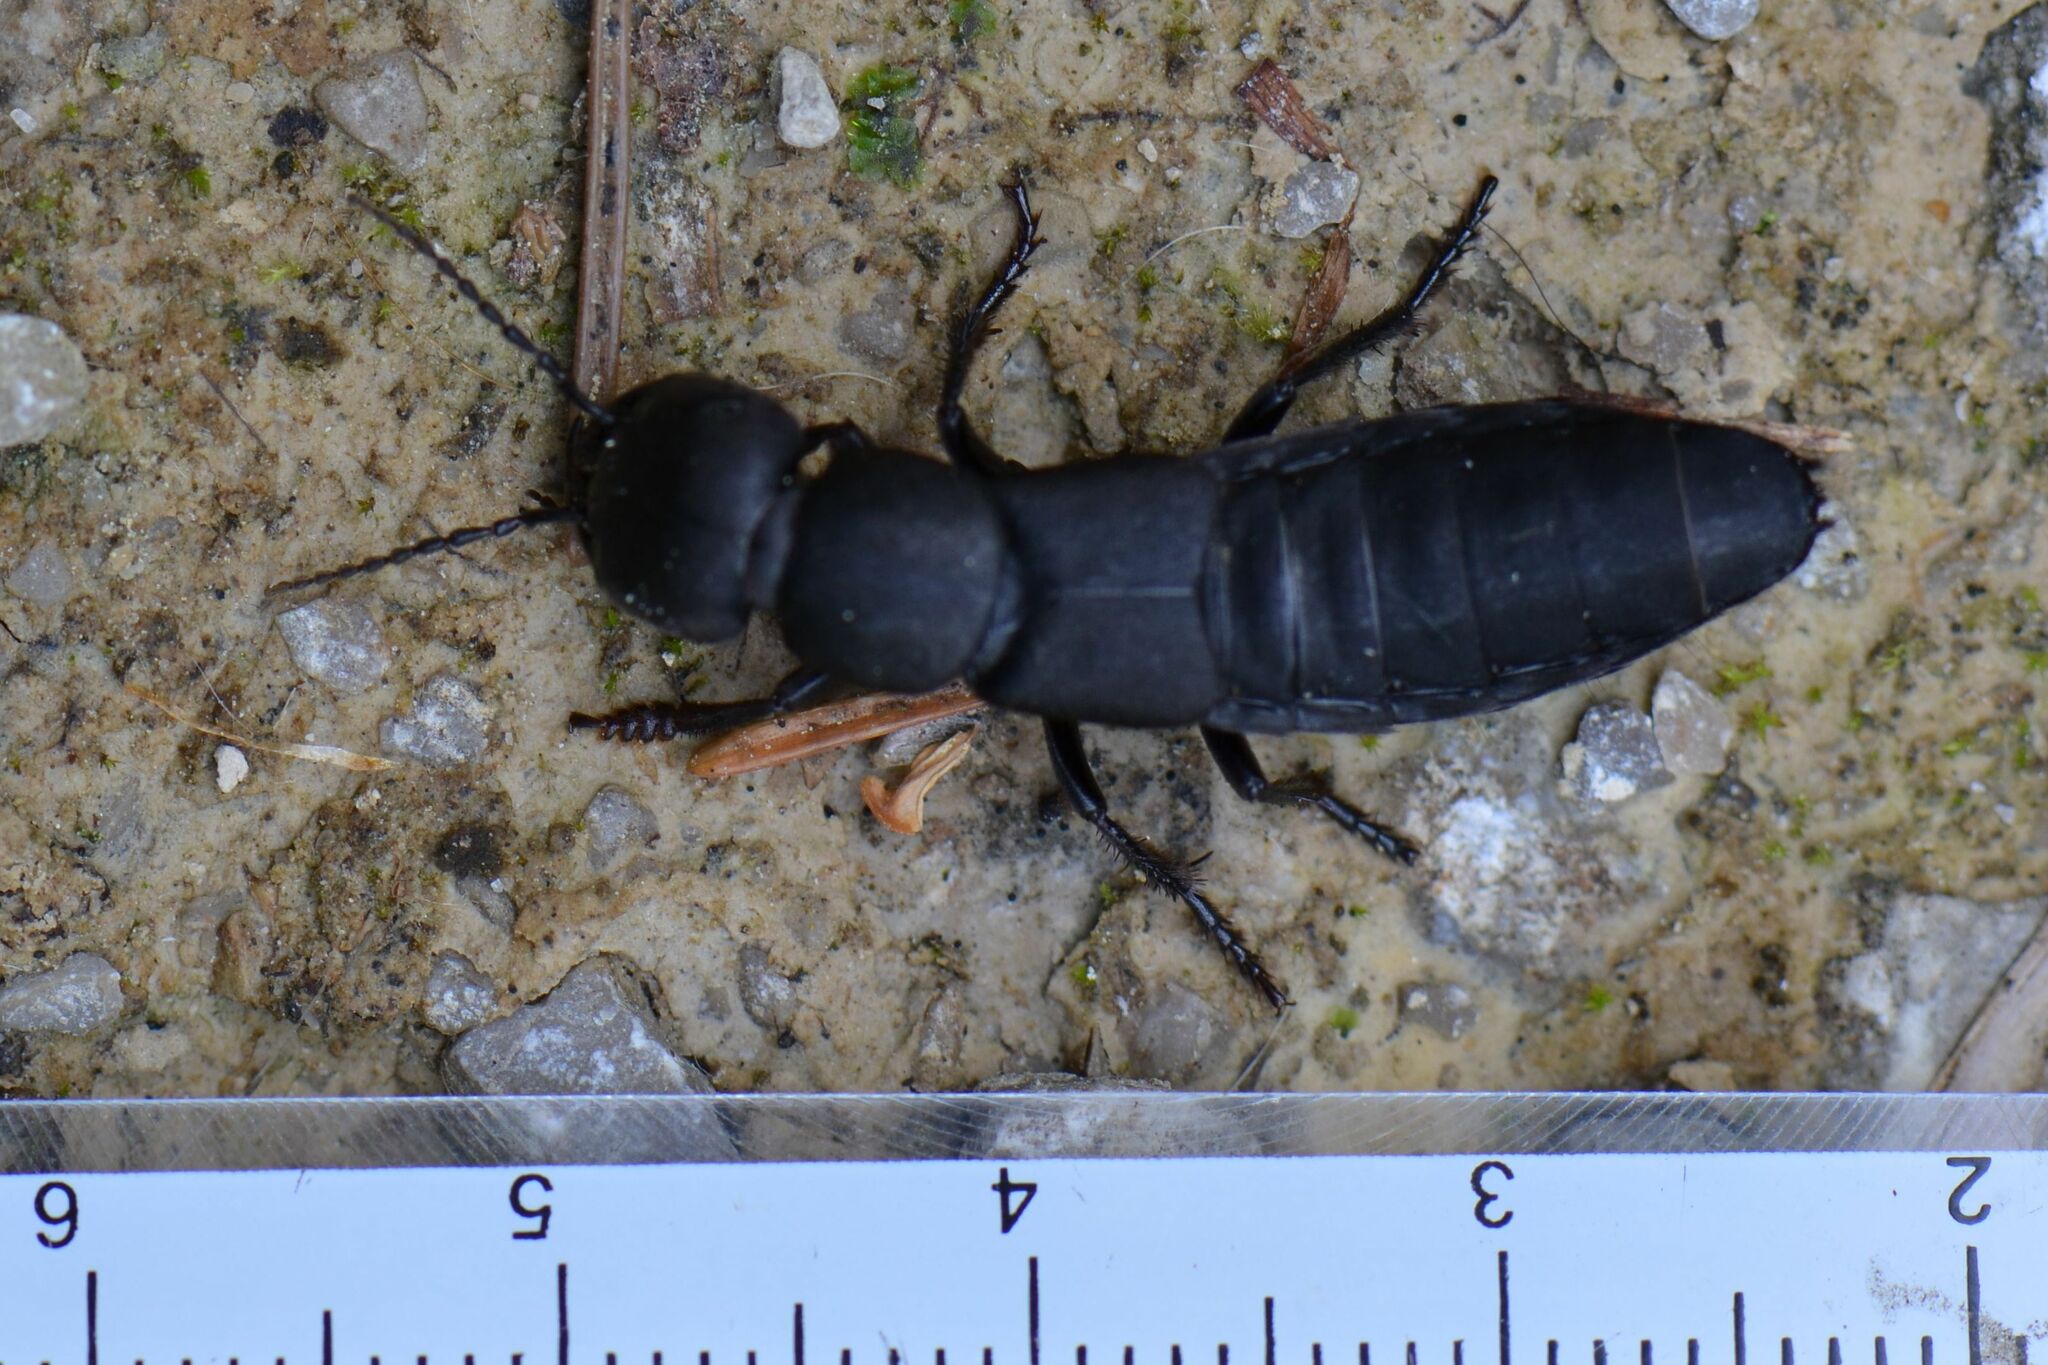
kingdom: Animalia
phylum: Arthropoda
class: Insecta
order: Coleoptera
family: Staphylinidae
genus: Ocypus
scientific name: Ocypus olens
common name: Devil's coach-horse
